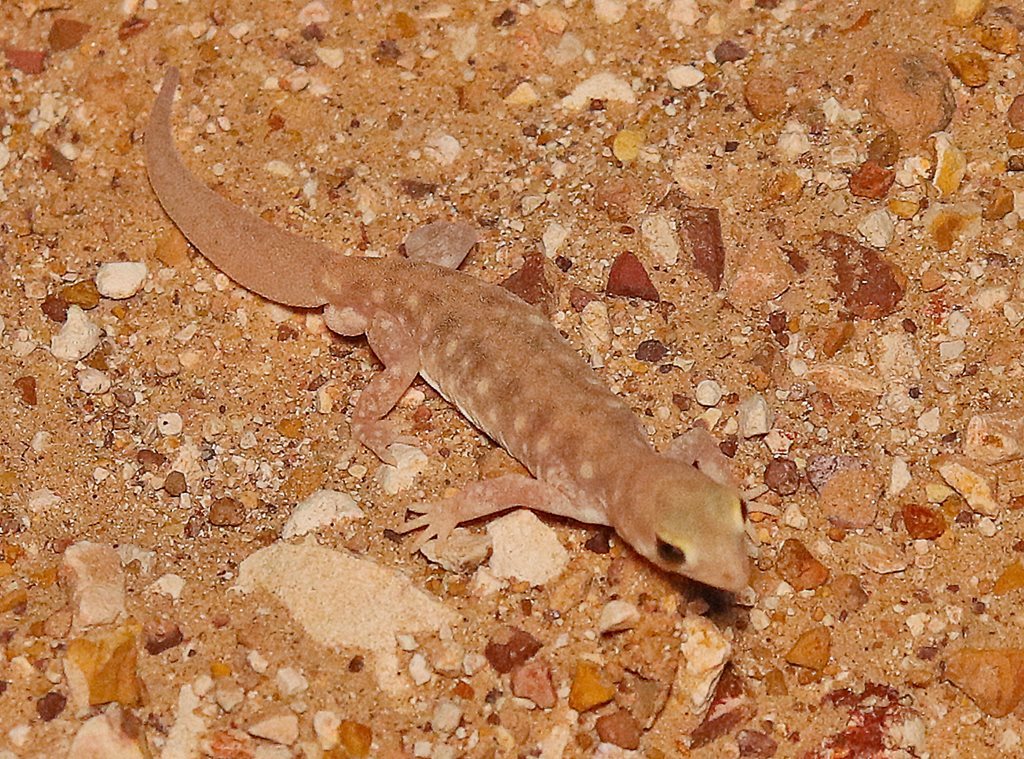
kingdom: Animalia
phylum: Chordata
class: Squamata
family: Diplodactylidae
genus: Rhynchoedura
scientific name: Rhynchoedura
